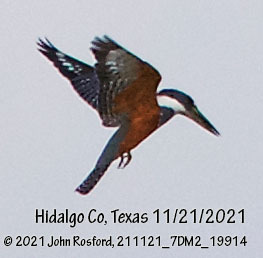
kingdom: Animalia
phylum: Chordata
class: Aves
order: Coraciiformes
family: Alcedinidae
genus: Megaceryle
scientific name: Megaceryle torquata
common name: Ringed kingfisher
